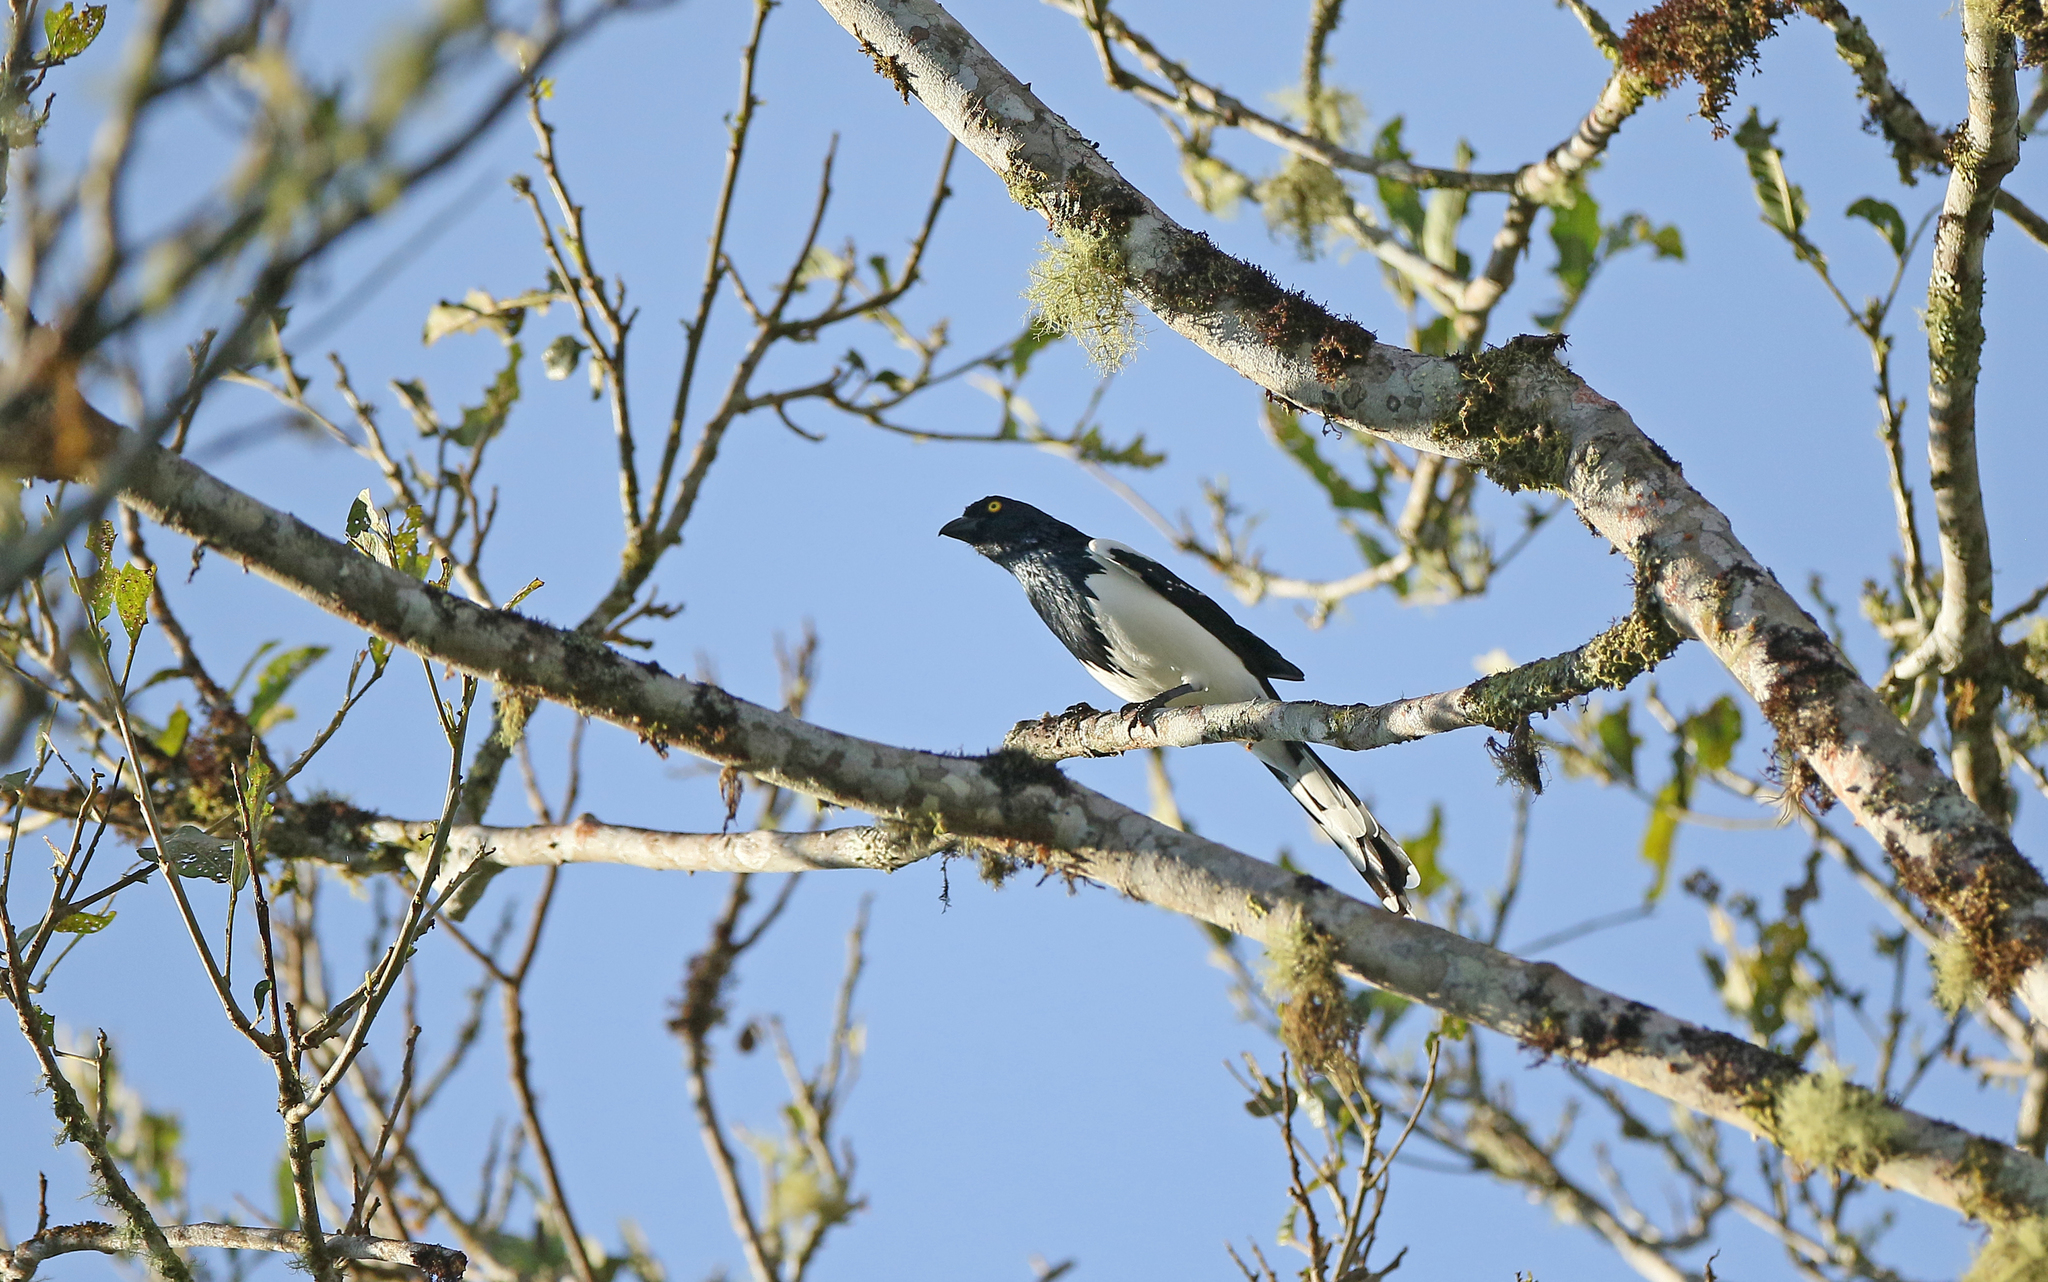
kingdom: Animalia
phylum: Chordata
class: Aves
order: Passeriformes
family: Thraupidae
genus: Cissopis
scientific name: Cissopis leverianus
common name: Magpie tanager
